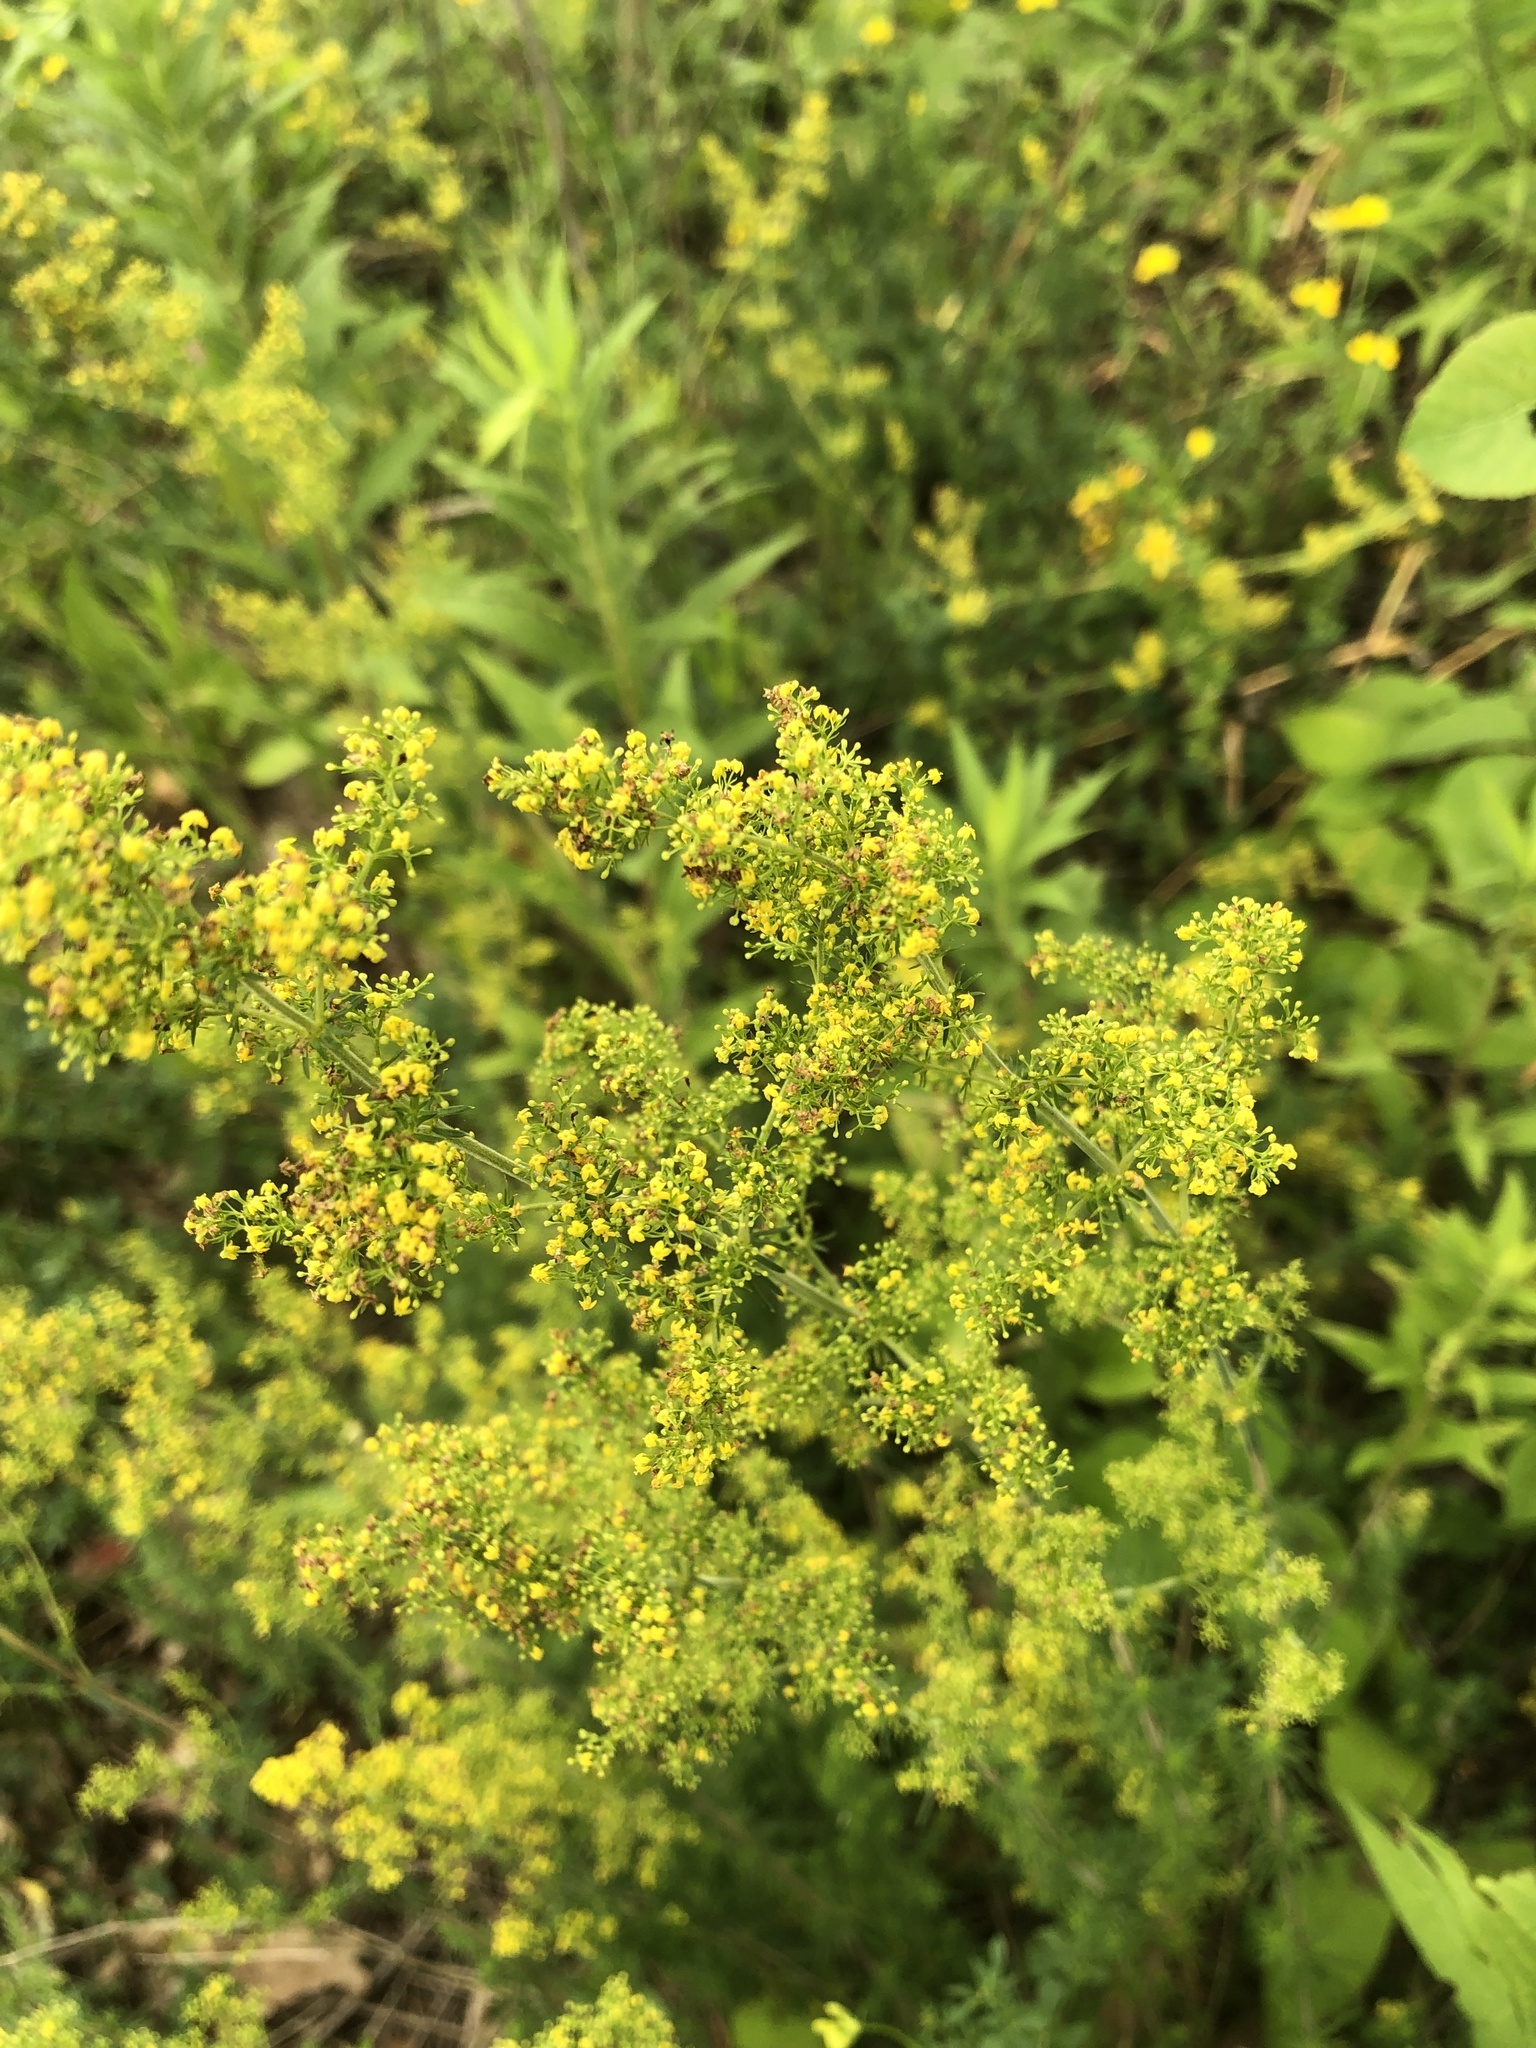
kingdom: Plantae
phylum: Tracheophyta
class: Magnoliopsida
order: Gentianales
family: Rubiaceae
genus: Galium
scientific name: Galium verum
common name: Lady's bedstraw
